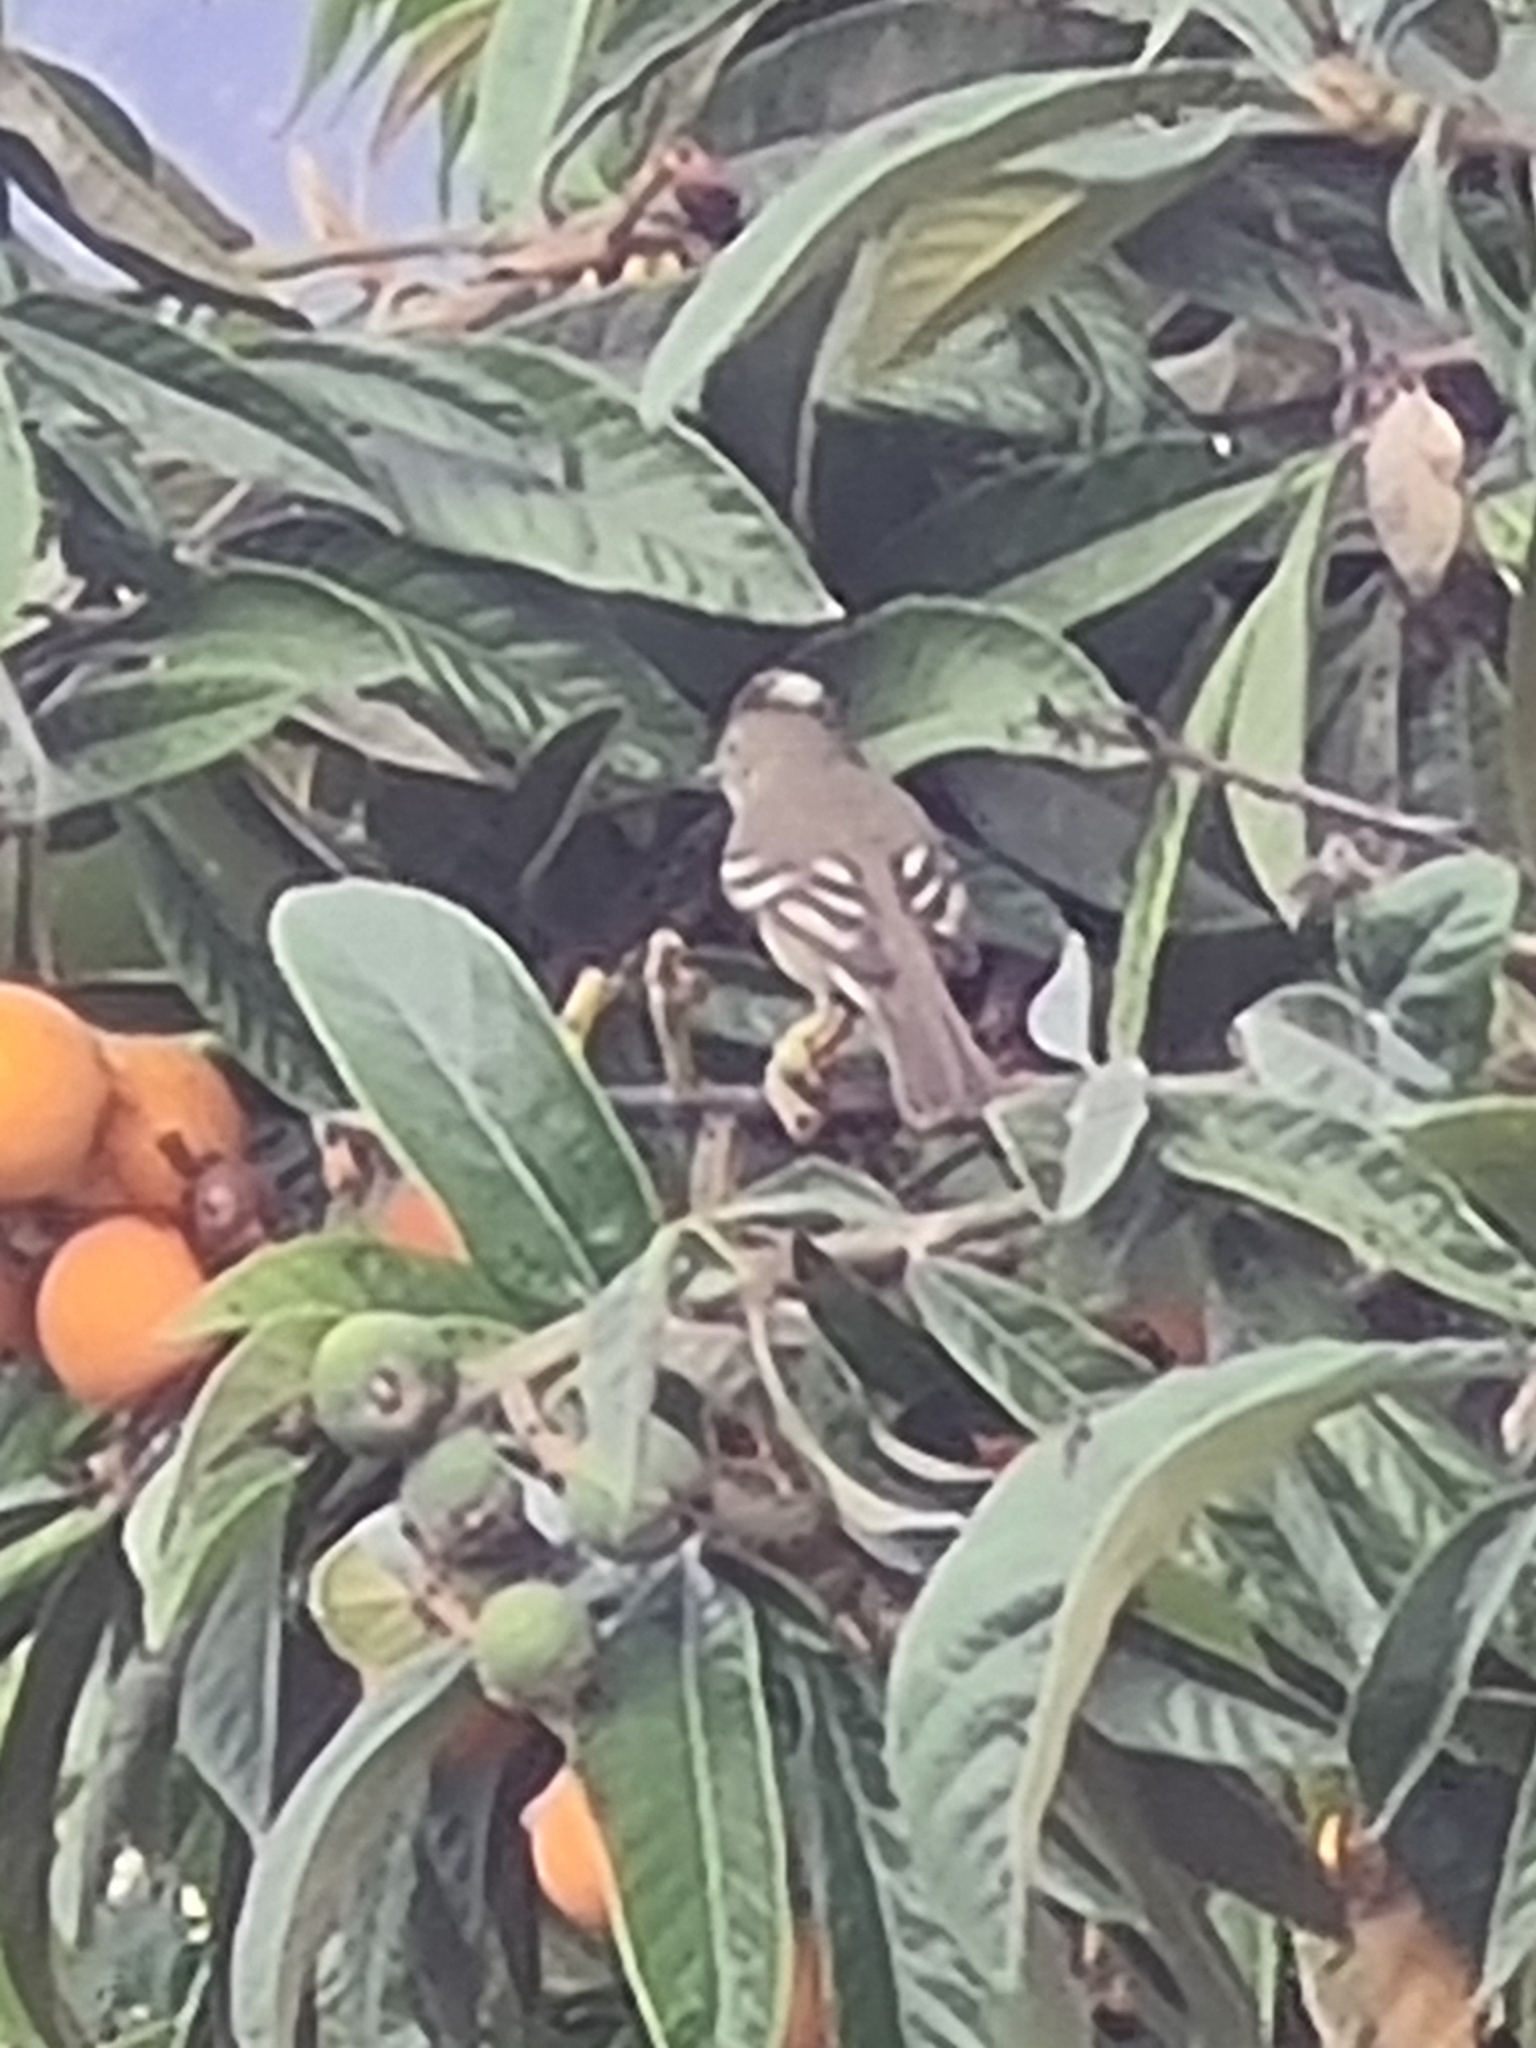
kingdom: Animalia
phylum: Chordata
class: Aves
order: Passeriformes
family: Tyrannidae
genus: Elaenia
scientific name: Elaenia albiceps
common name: White-crested elaenia
